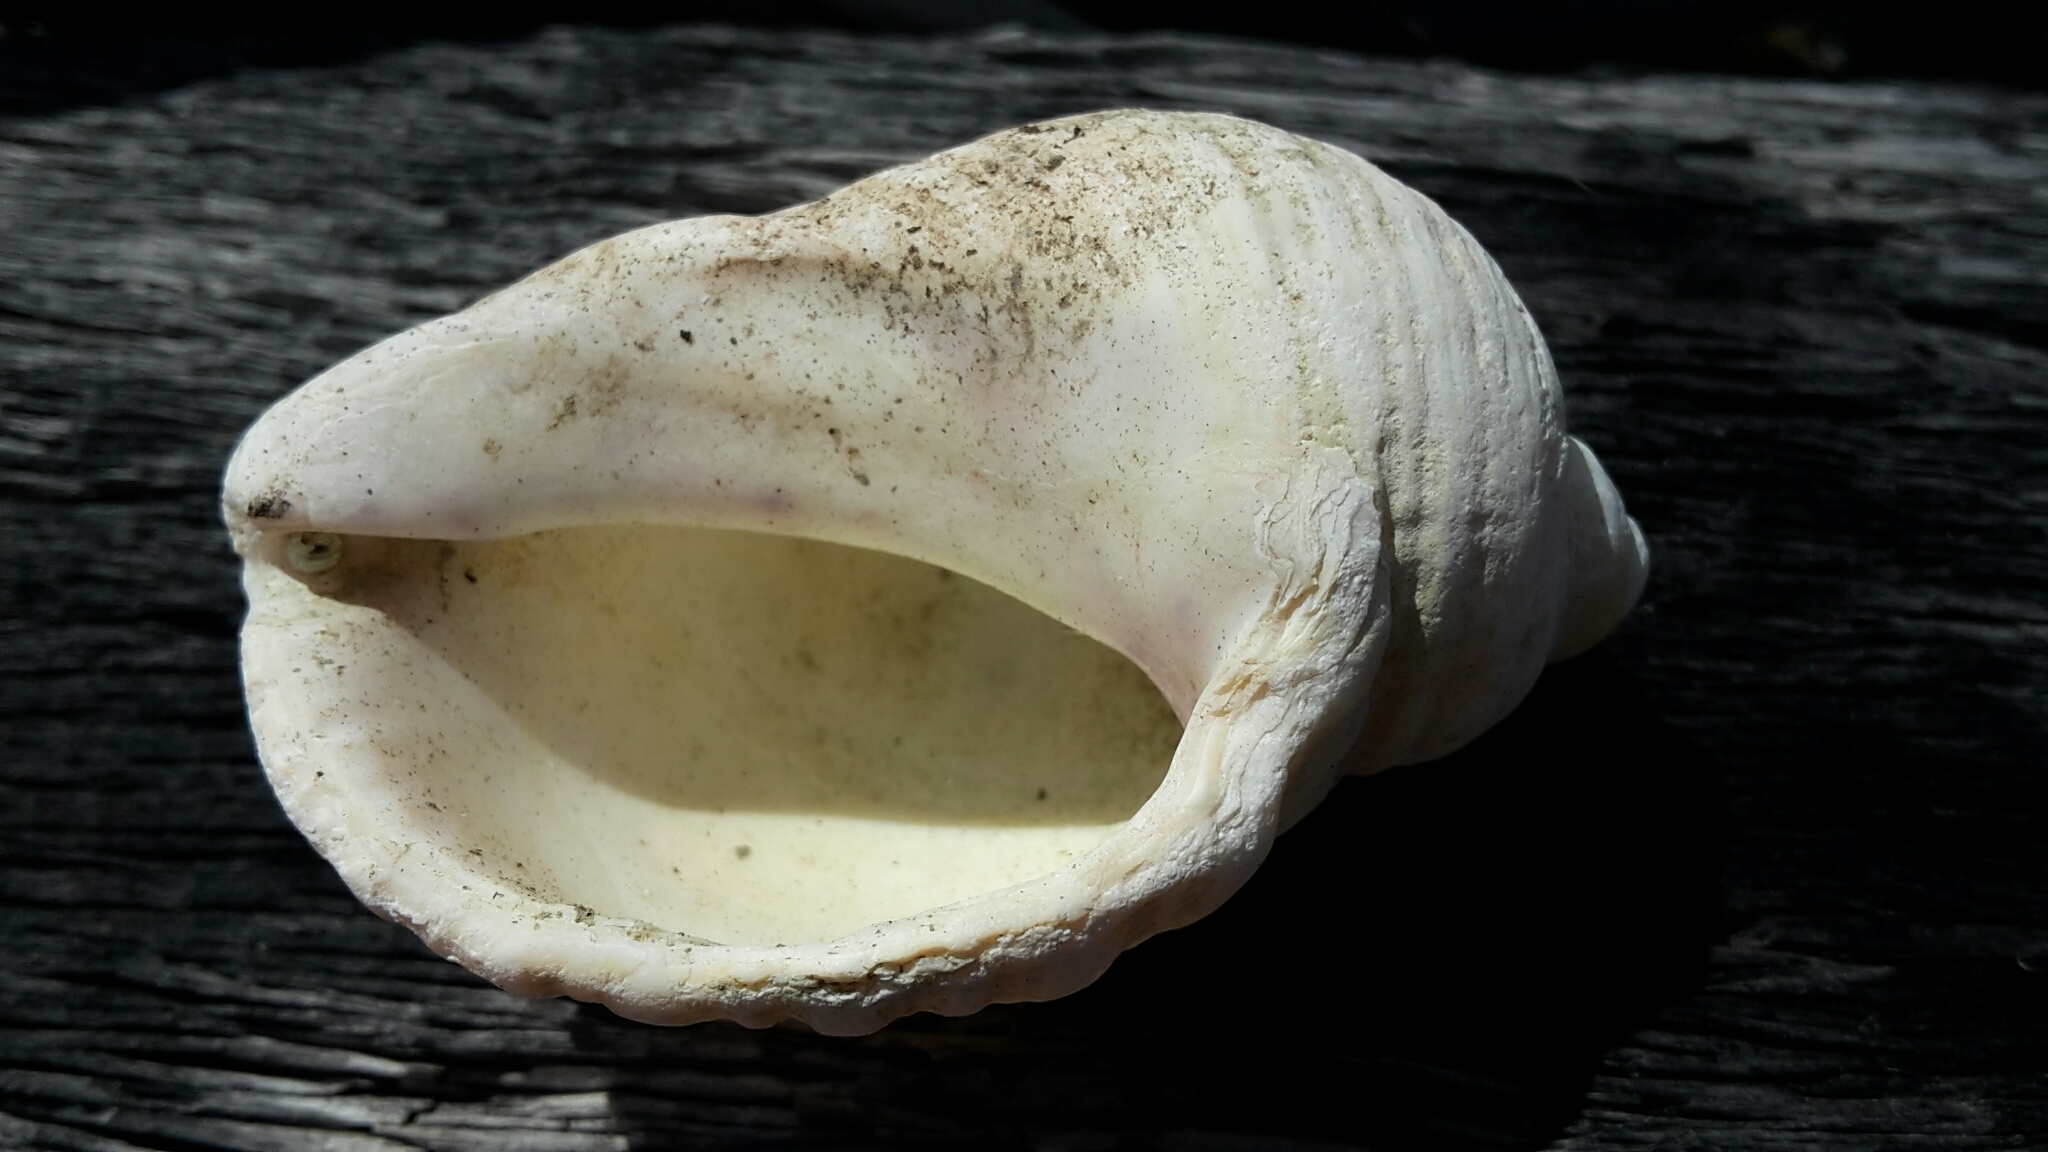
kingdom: Animalia
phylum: Mollusca
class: Gastropoda
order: Neogastropoda
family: Muricidae
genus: Dicathais
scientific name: Dicathais orbita
